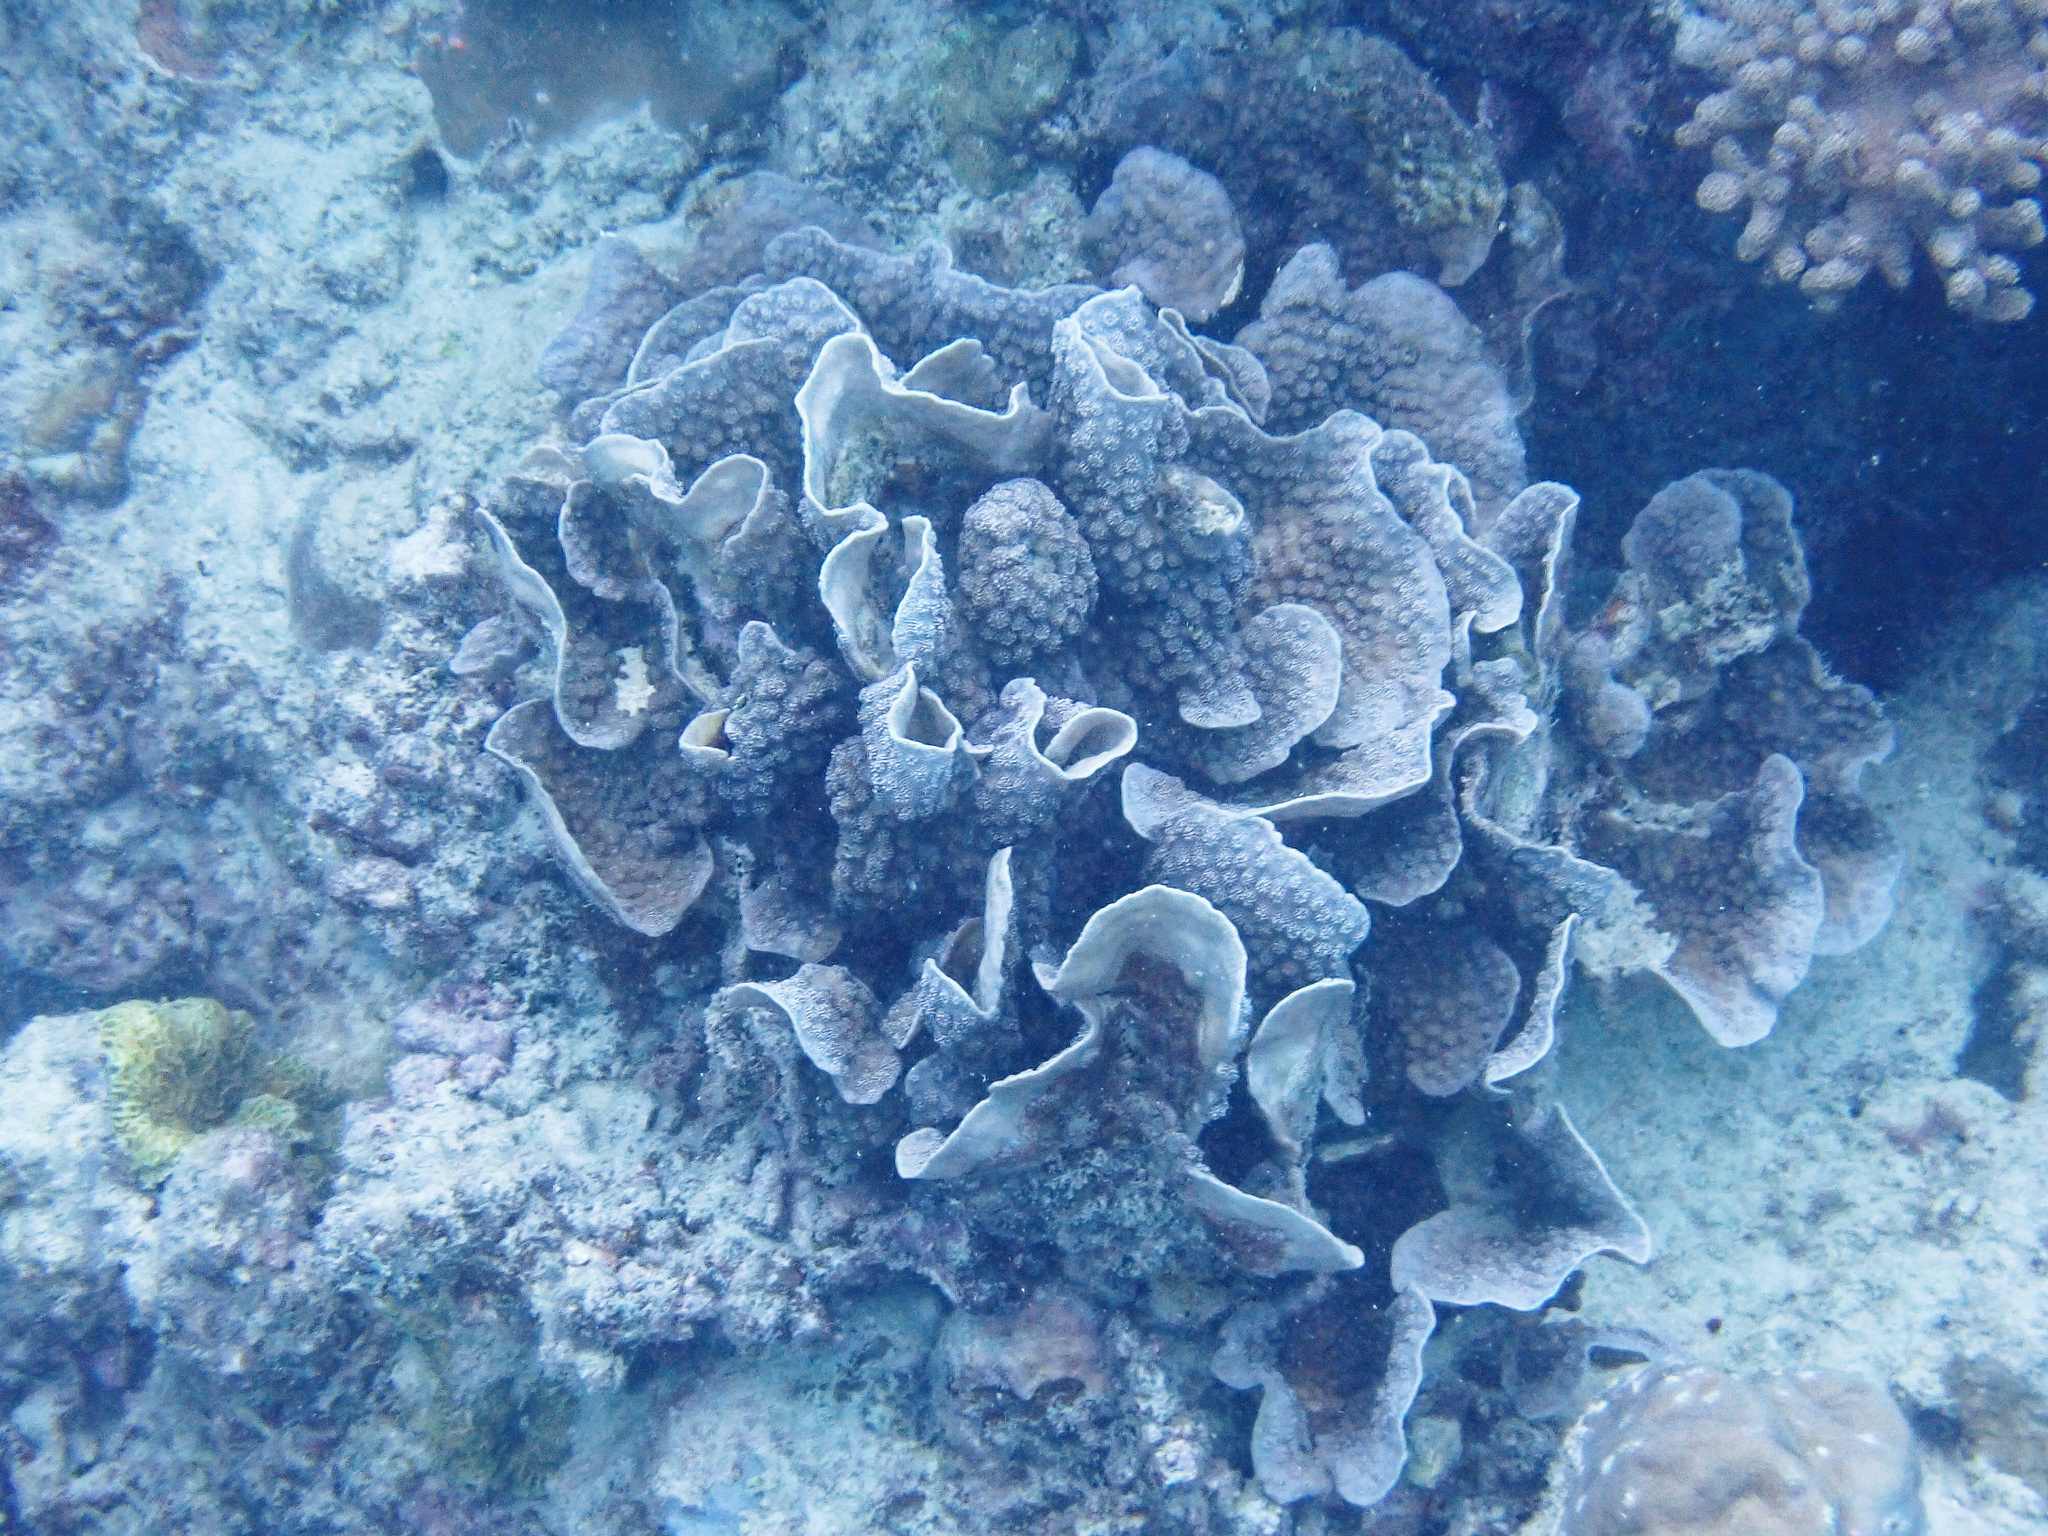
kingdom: Animalia
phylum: Cnidaria
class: Anthozoa
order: Scleractinia
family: Merulinidae
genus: Echinopora
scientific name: Echinopora lamellosa
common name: Hedgehog coral
